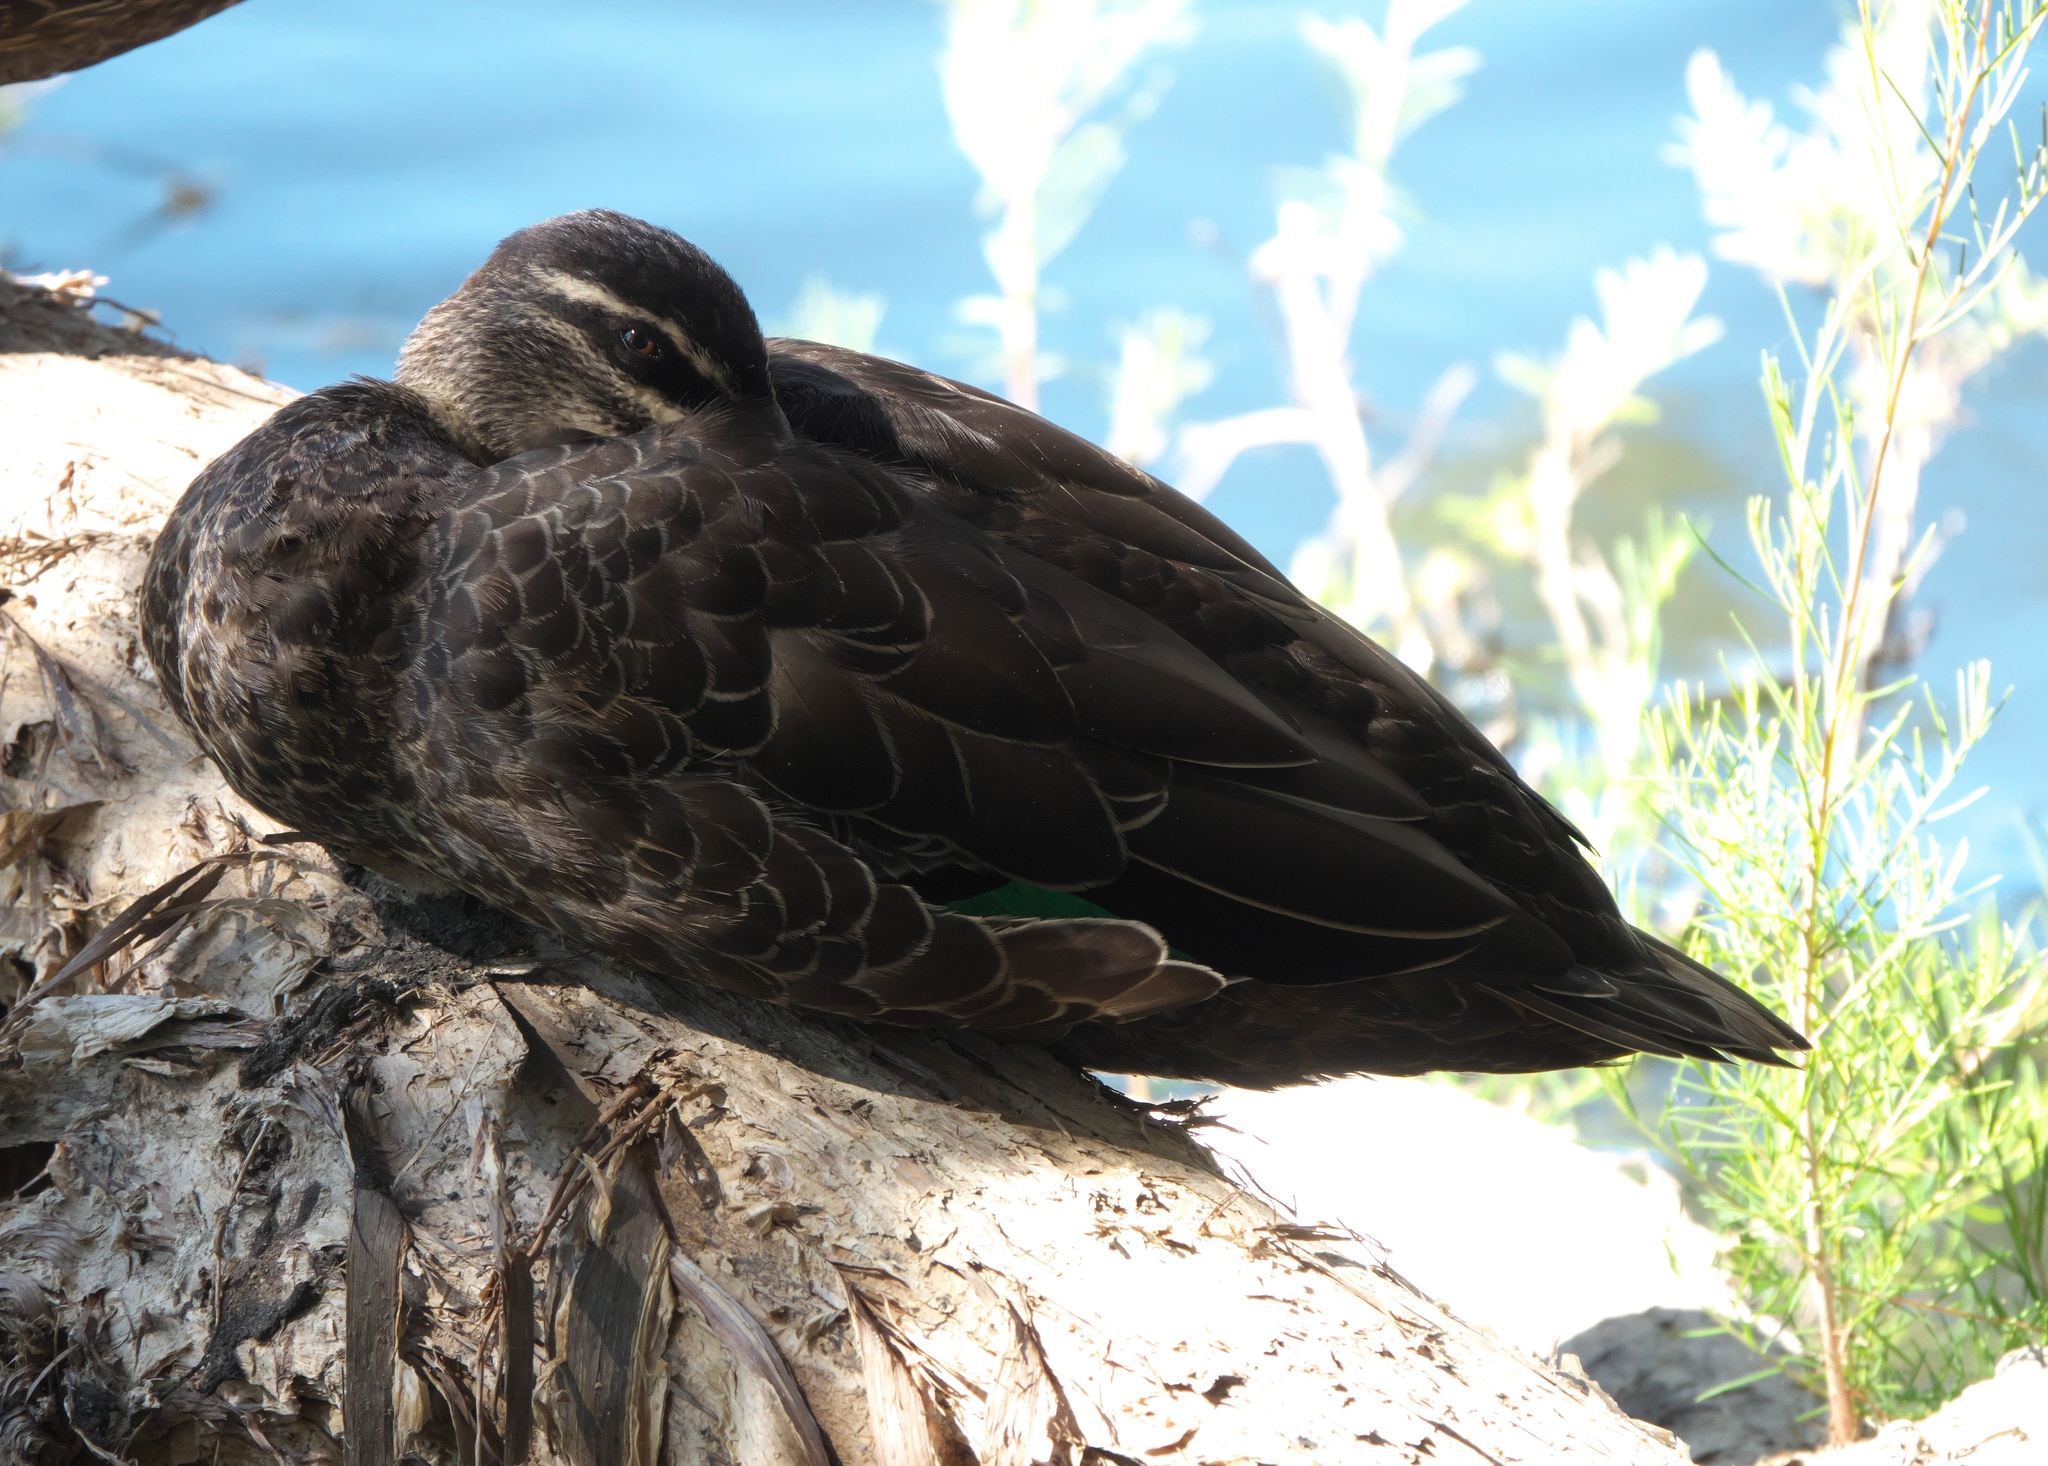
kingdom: Animalia
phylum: Chordata
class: Aves
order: Anseriformes
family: Anatidae
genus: Anas
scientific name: Anas superciliosa
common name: Pacific black duck
